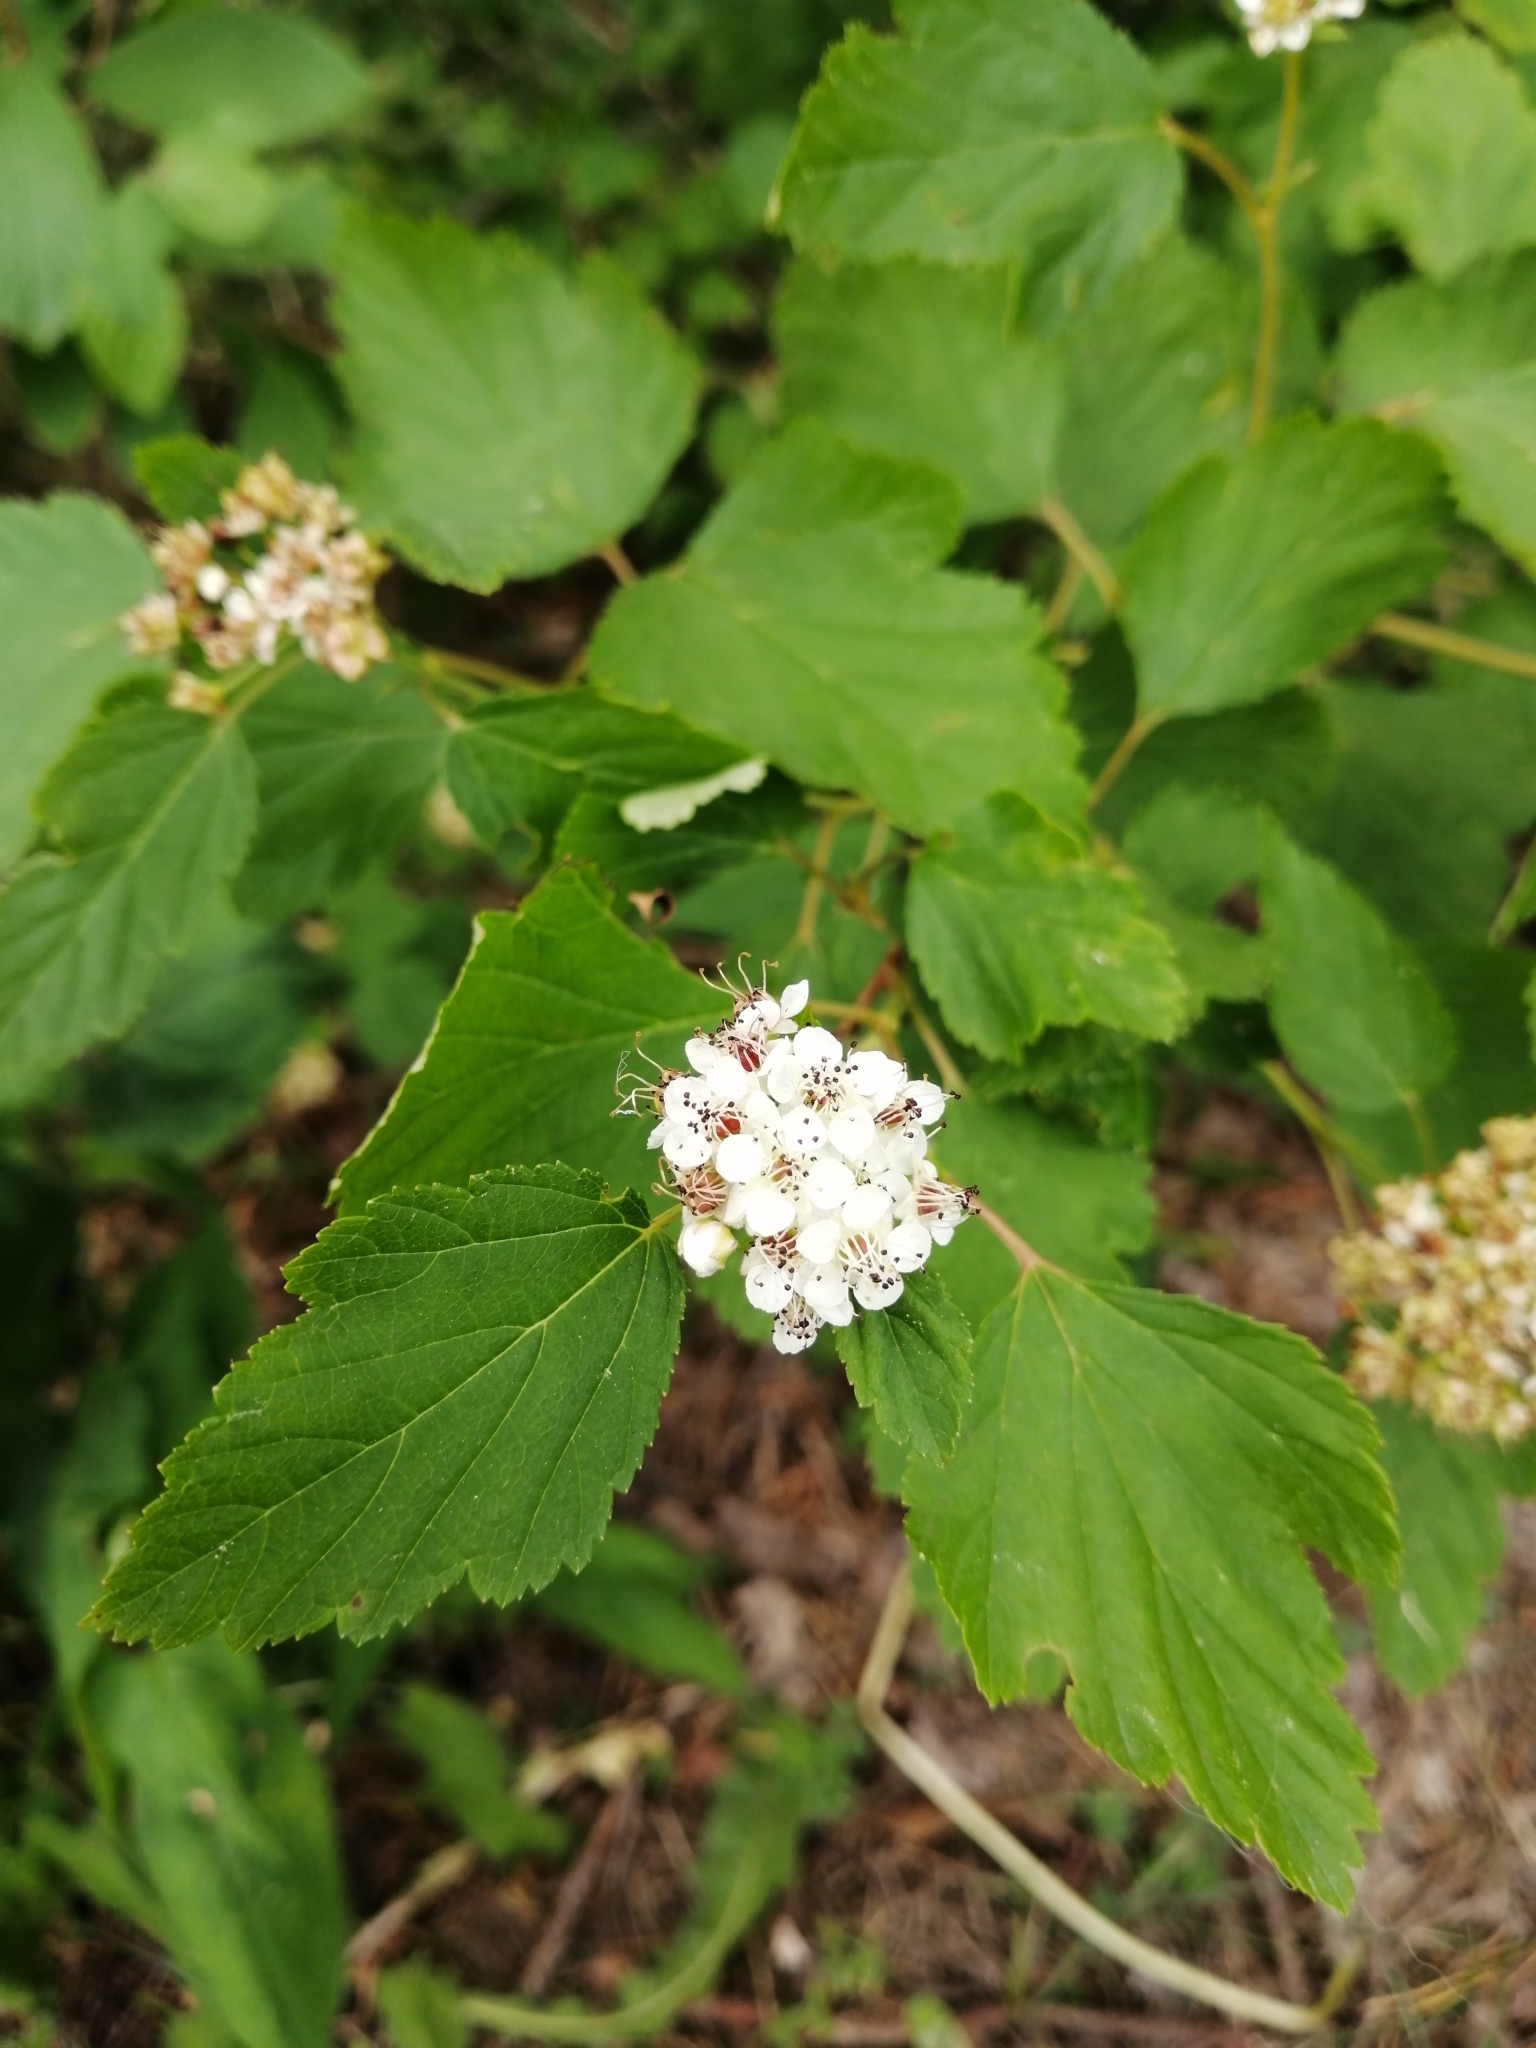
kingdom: Plantae
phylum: Tracheophyta
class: Magnoliopsida
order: Rosales
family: Rosaceae
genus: Physocarpus
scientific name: Physocarpus opulifolius
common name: Ninebark
